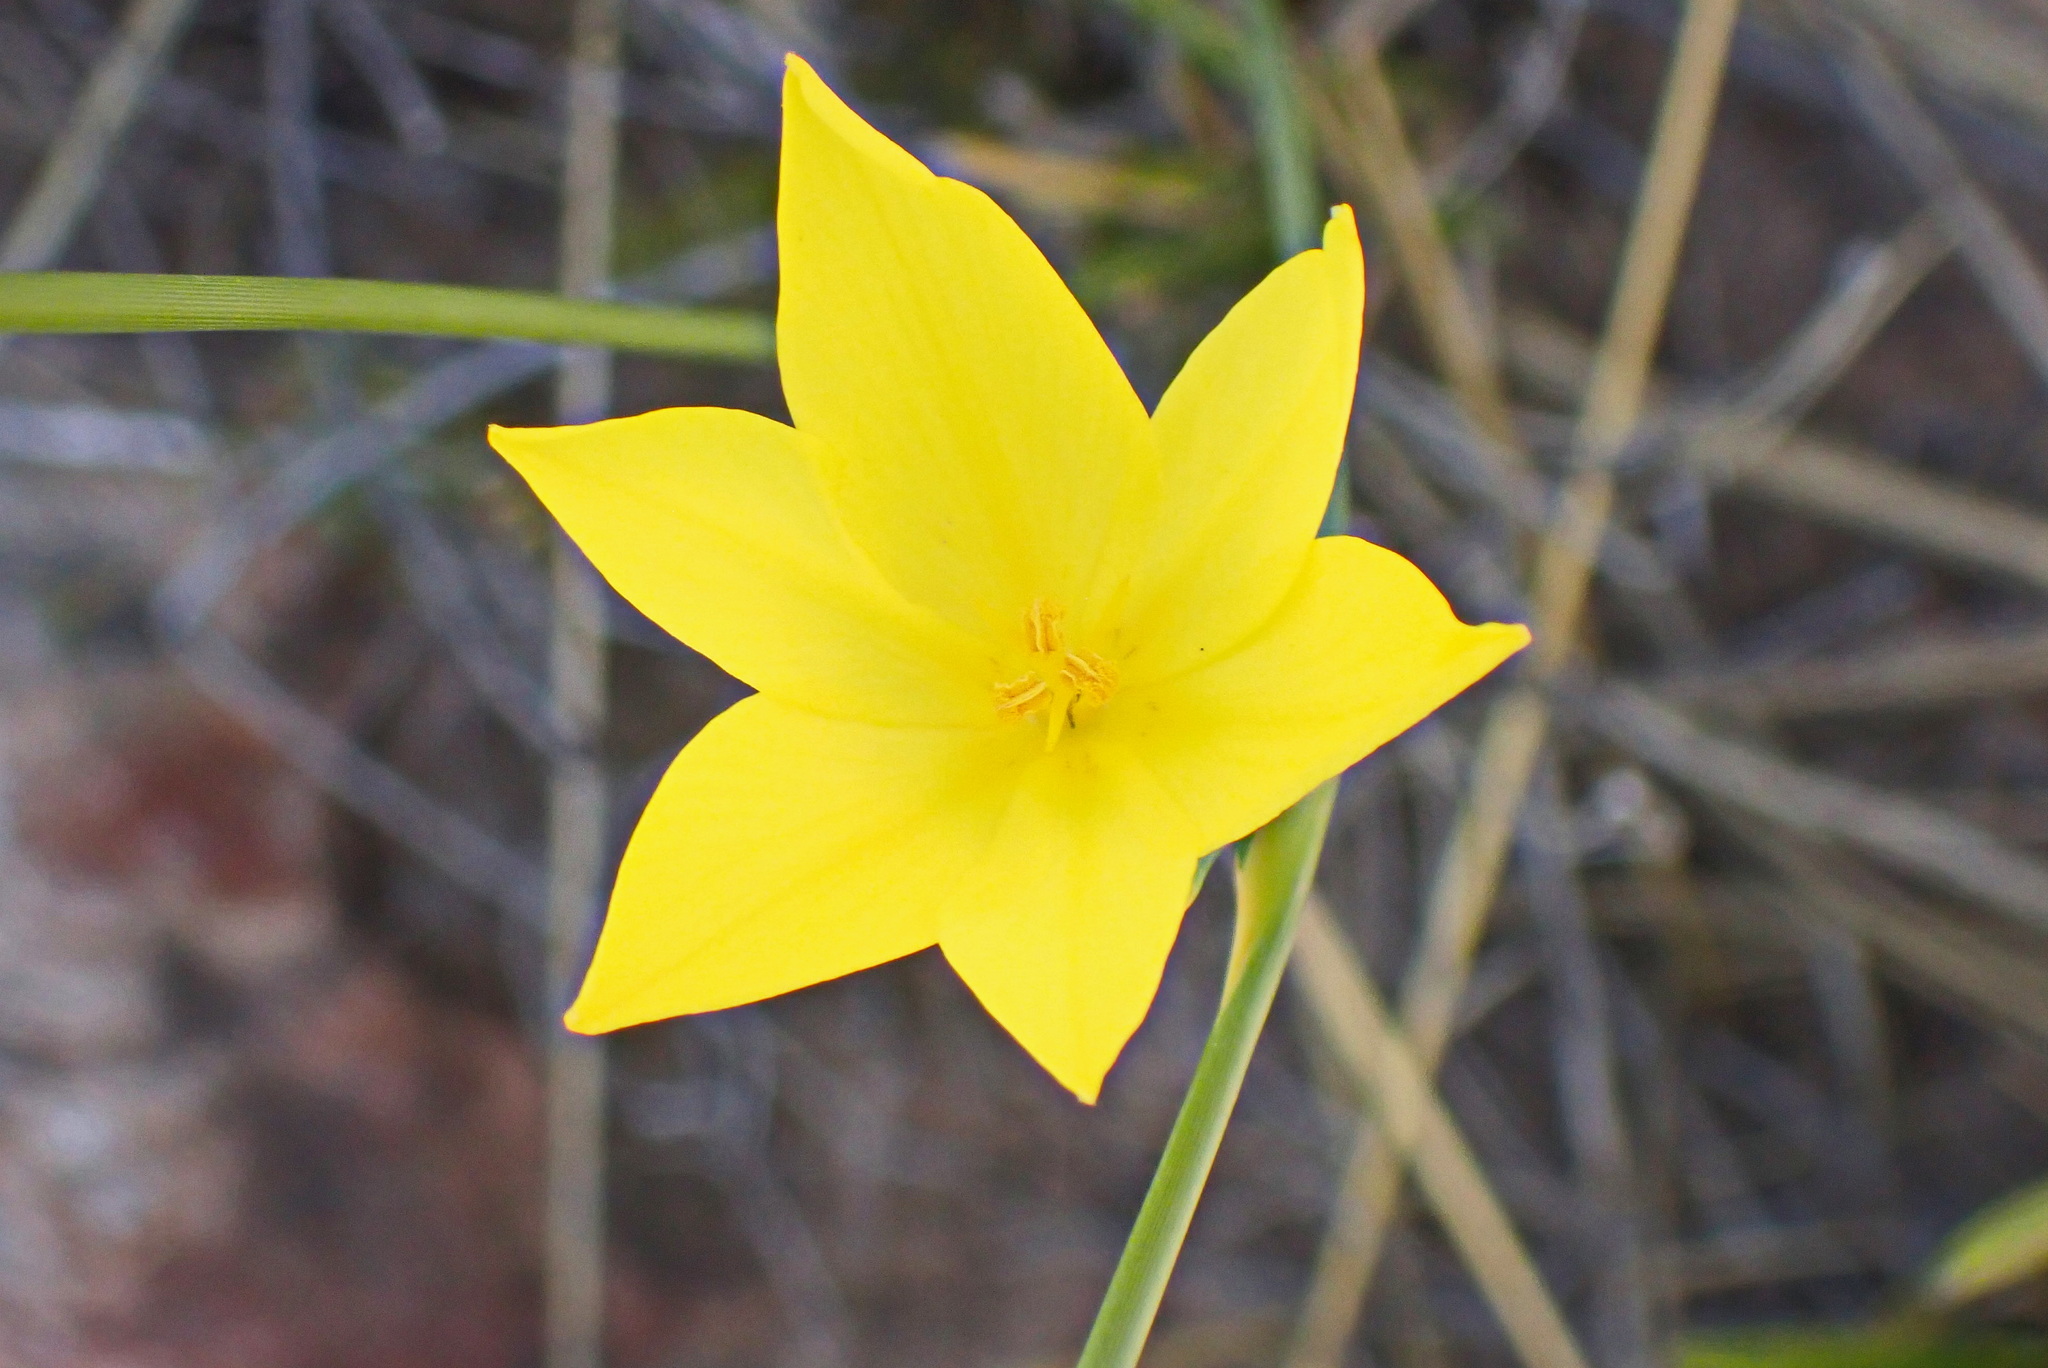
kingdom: Plantae
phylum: Tracheophyta
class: Liliopsida
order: Asparagales
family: Iridaceae
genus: Bobartia
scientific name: Bobartia aphylla
